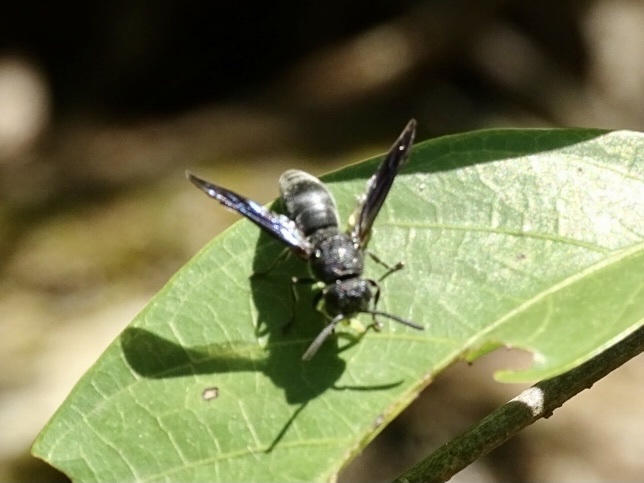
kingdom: Animalia
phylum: Arthropoda
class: Insecta
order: Hymenoptera
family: Eumenidae
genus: Allorhynchium
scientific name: Allorhynchium chinense
